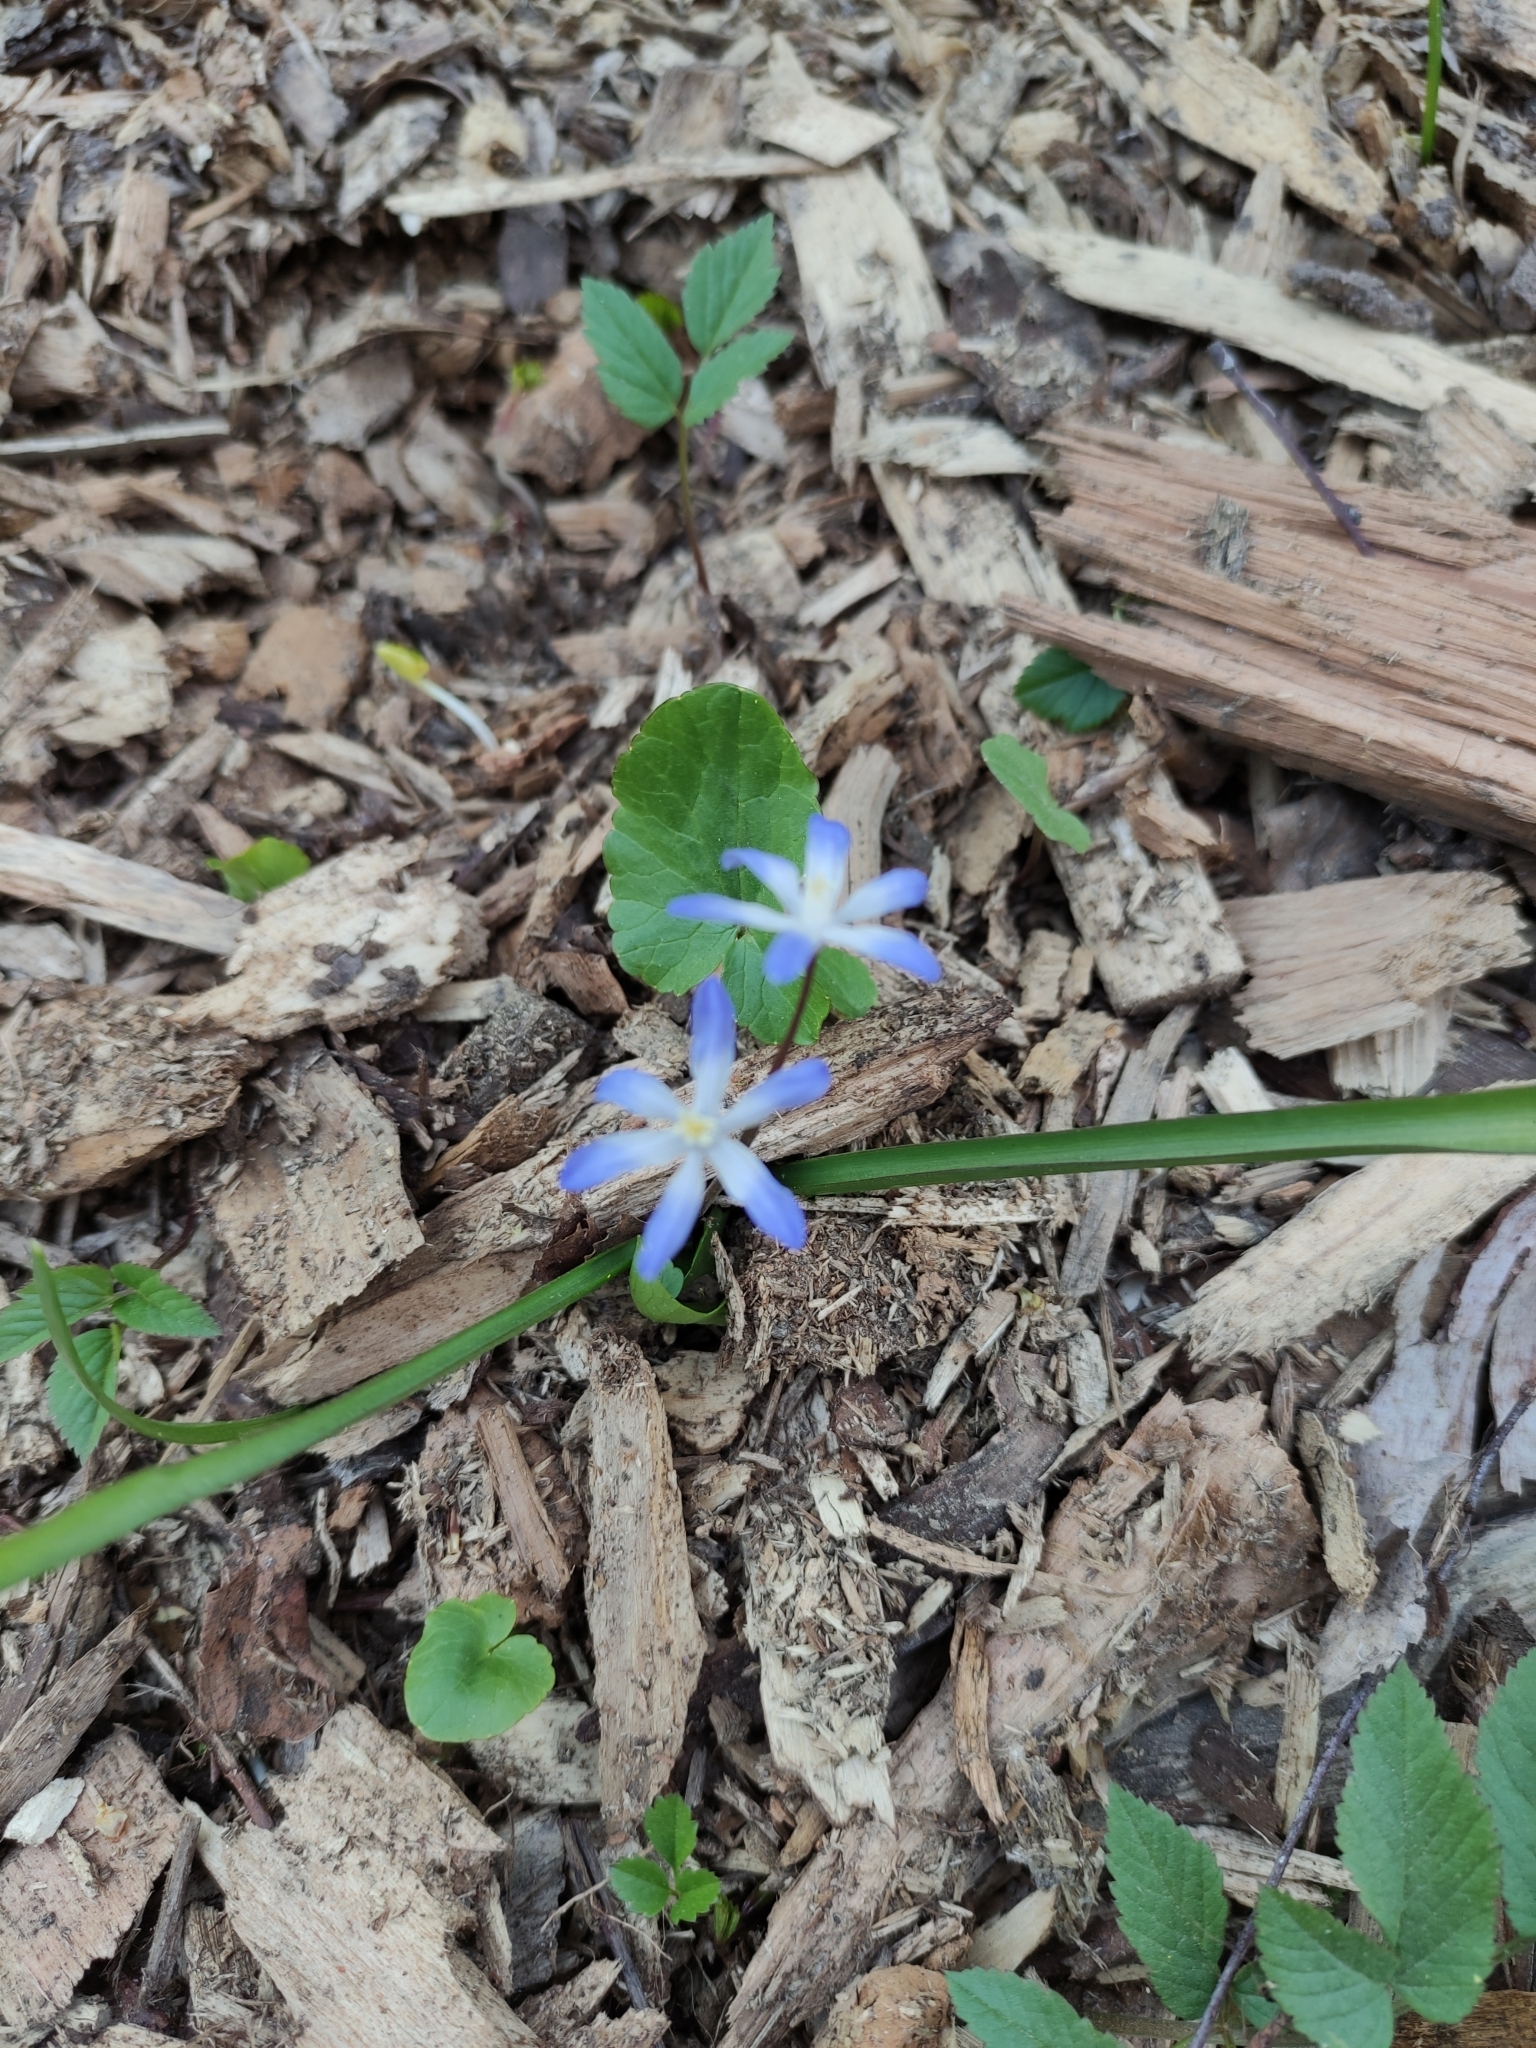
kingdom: Plantae
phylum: Tracheophyta
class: Liliopsida
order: Asparagales
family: Asparagaceae
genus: Scilla
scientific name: Scilla luciliae
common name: Boissier's glory-of-the-snow
